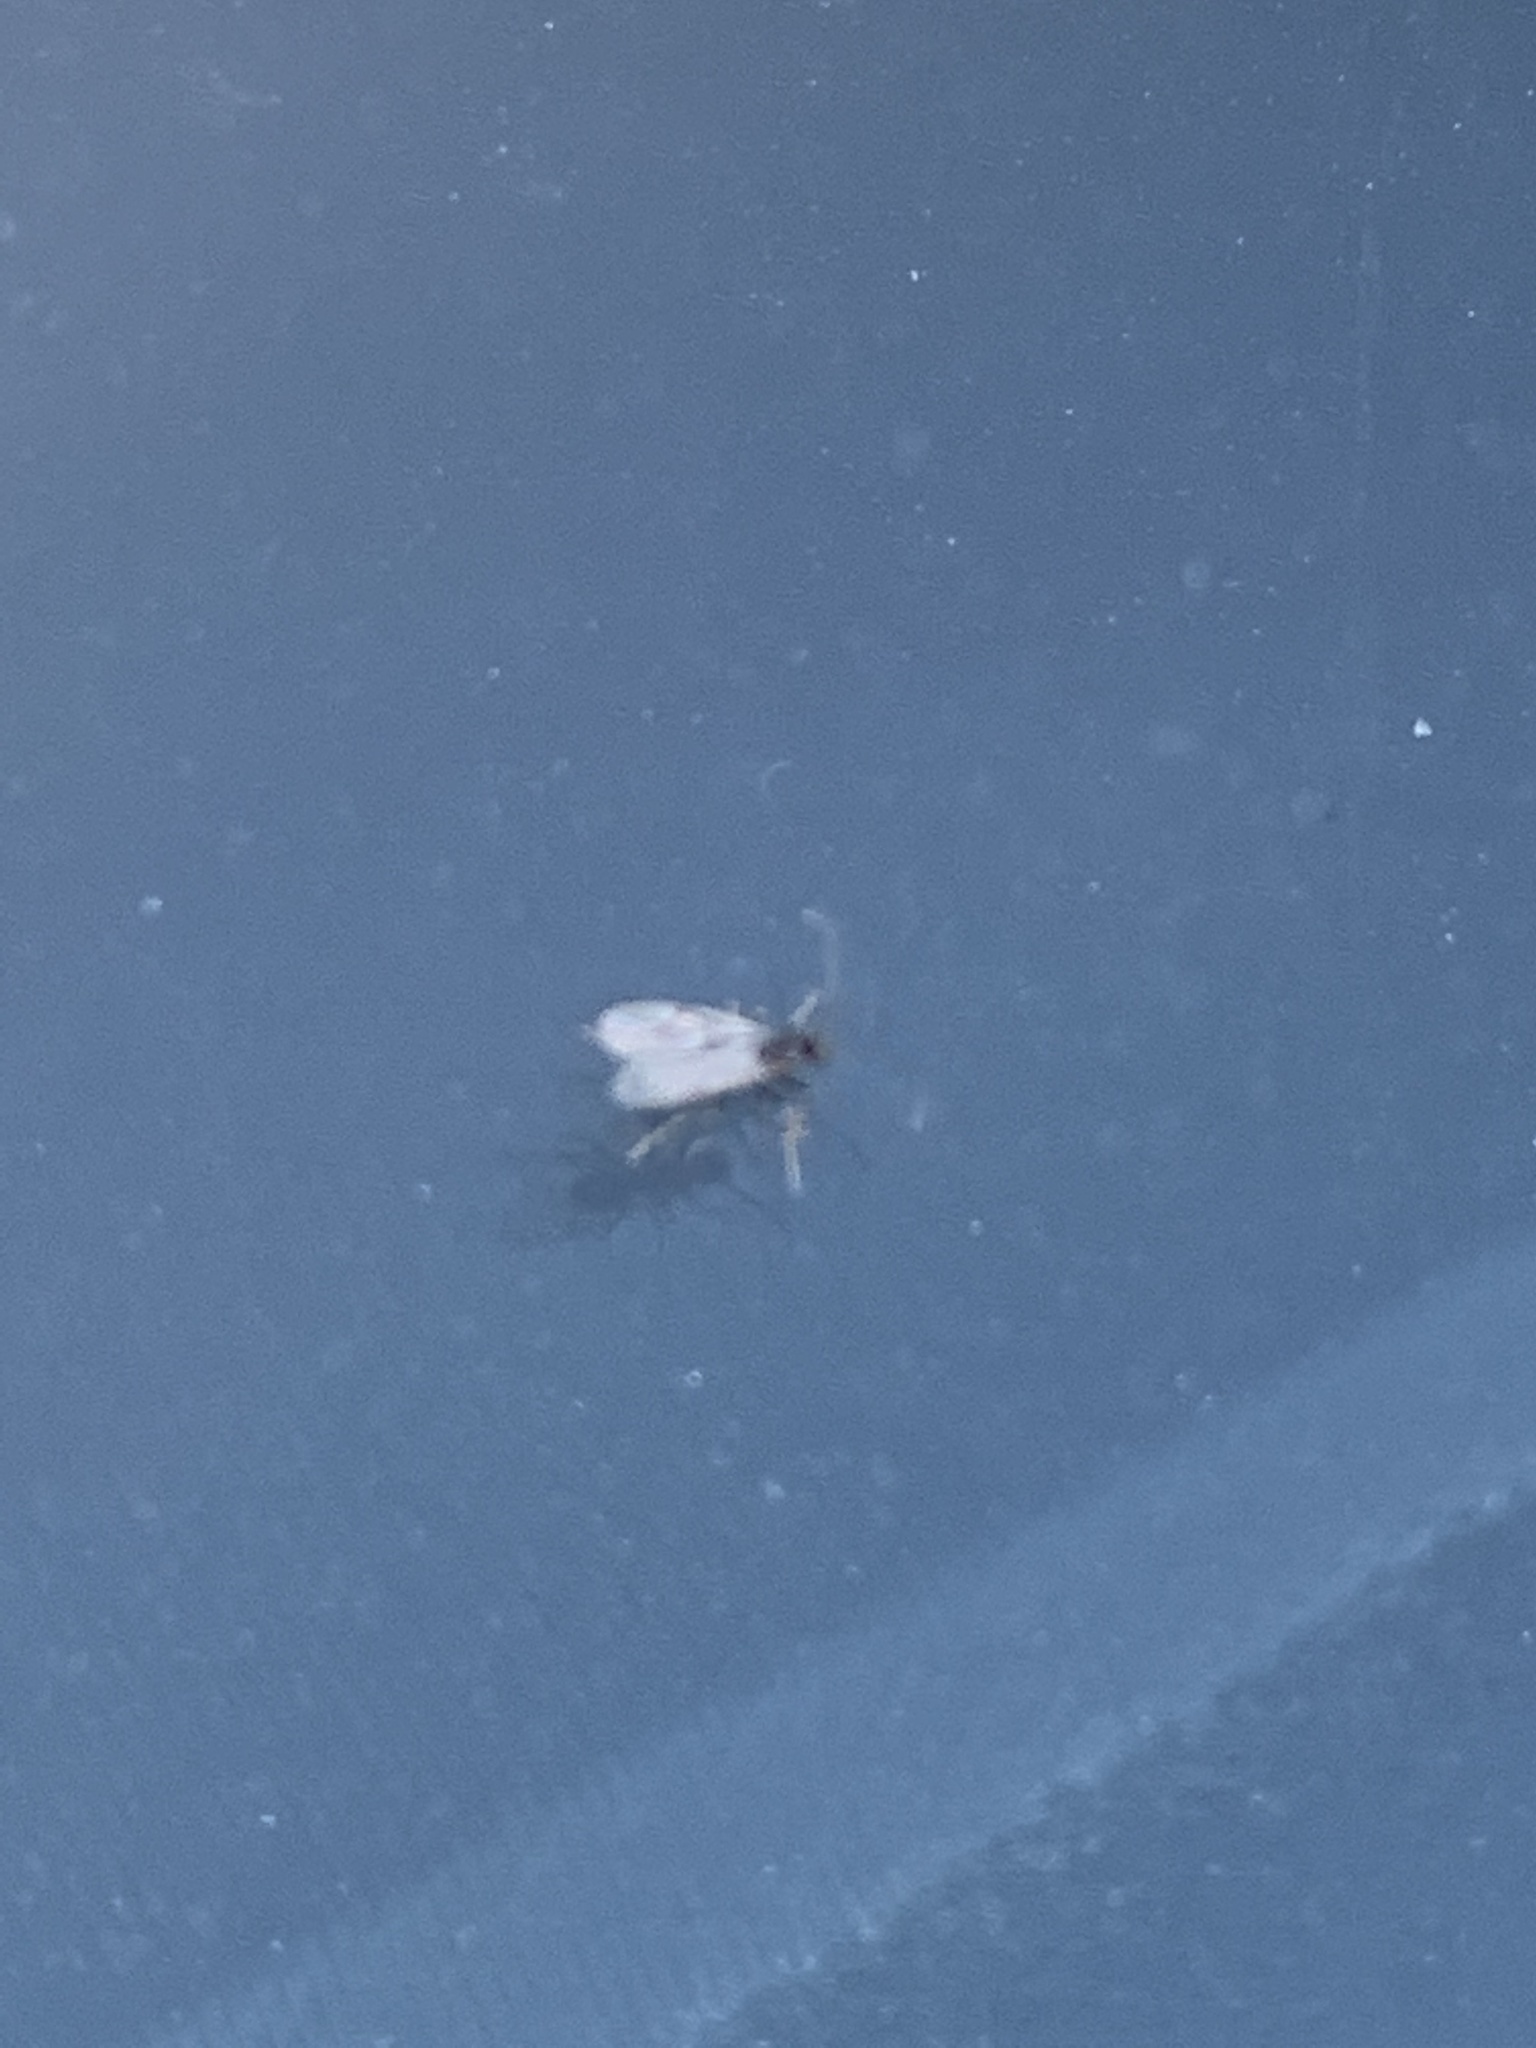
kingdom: Animalia
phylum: Arthropoda
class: Insecta
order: Hymenoptera
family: Formicidae
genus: Prenolepis
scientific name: Prenolepis imparis
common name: Small honey ant
